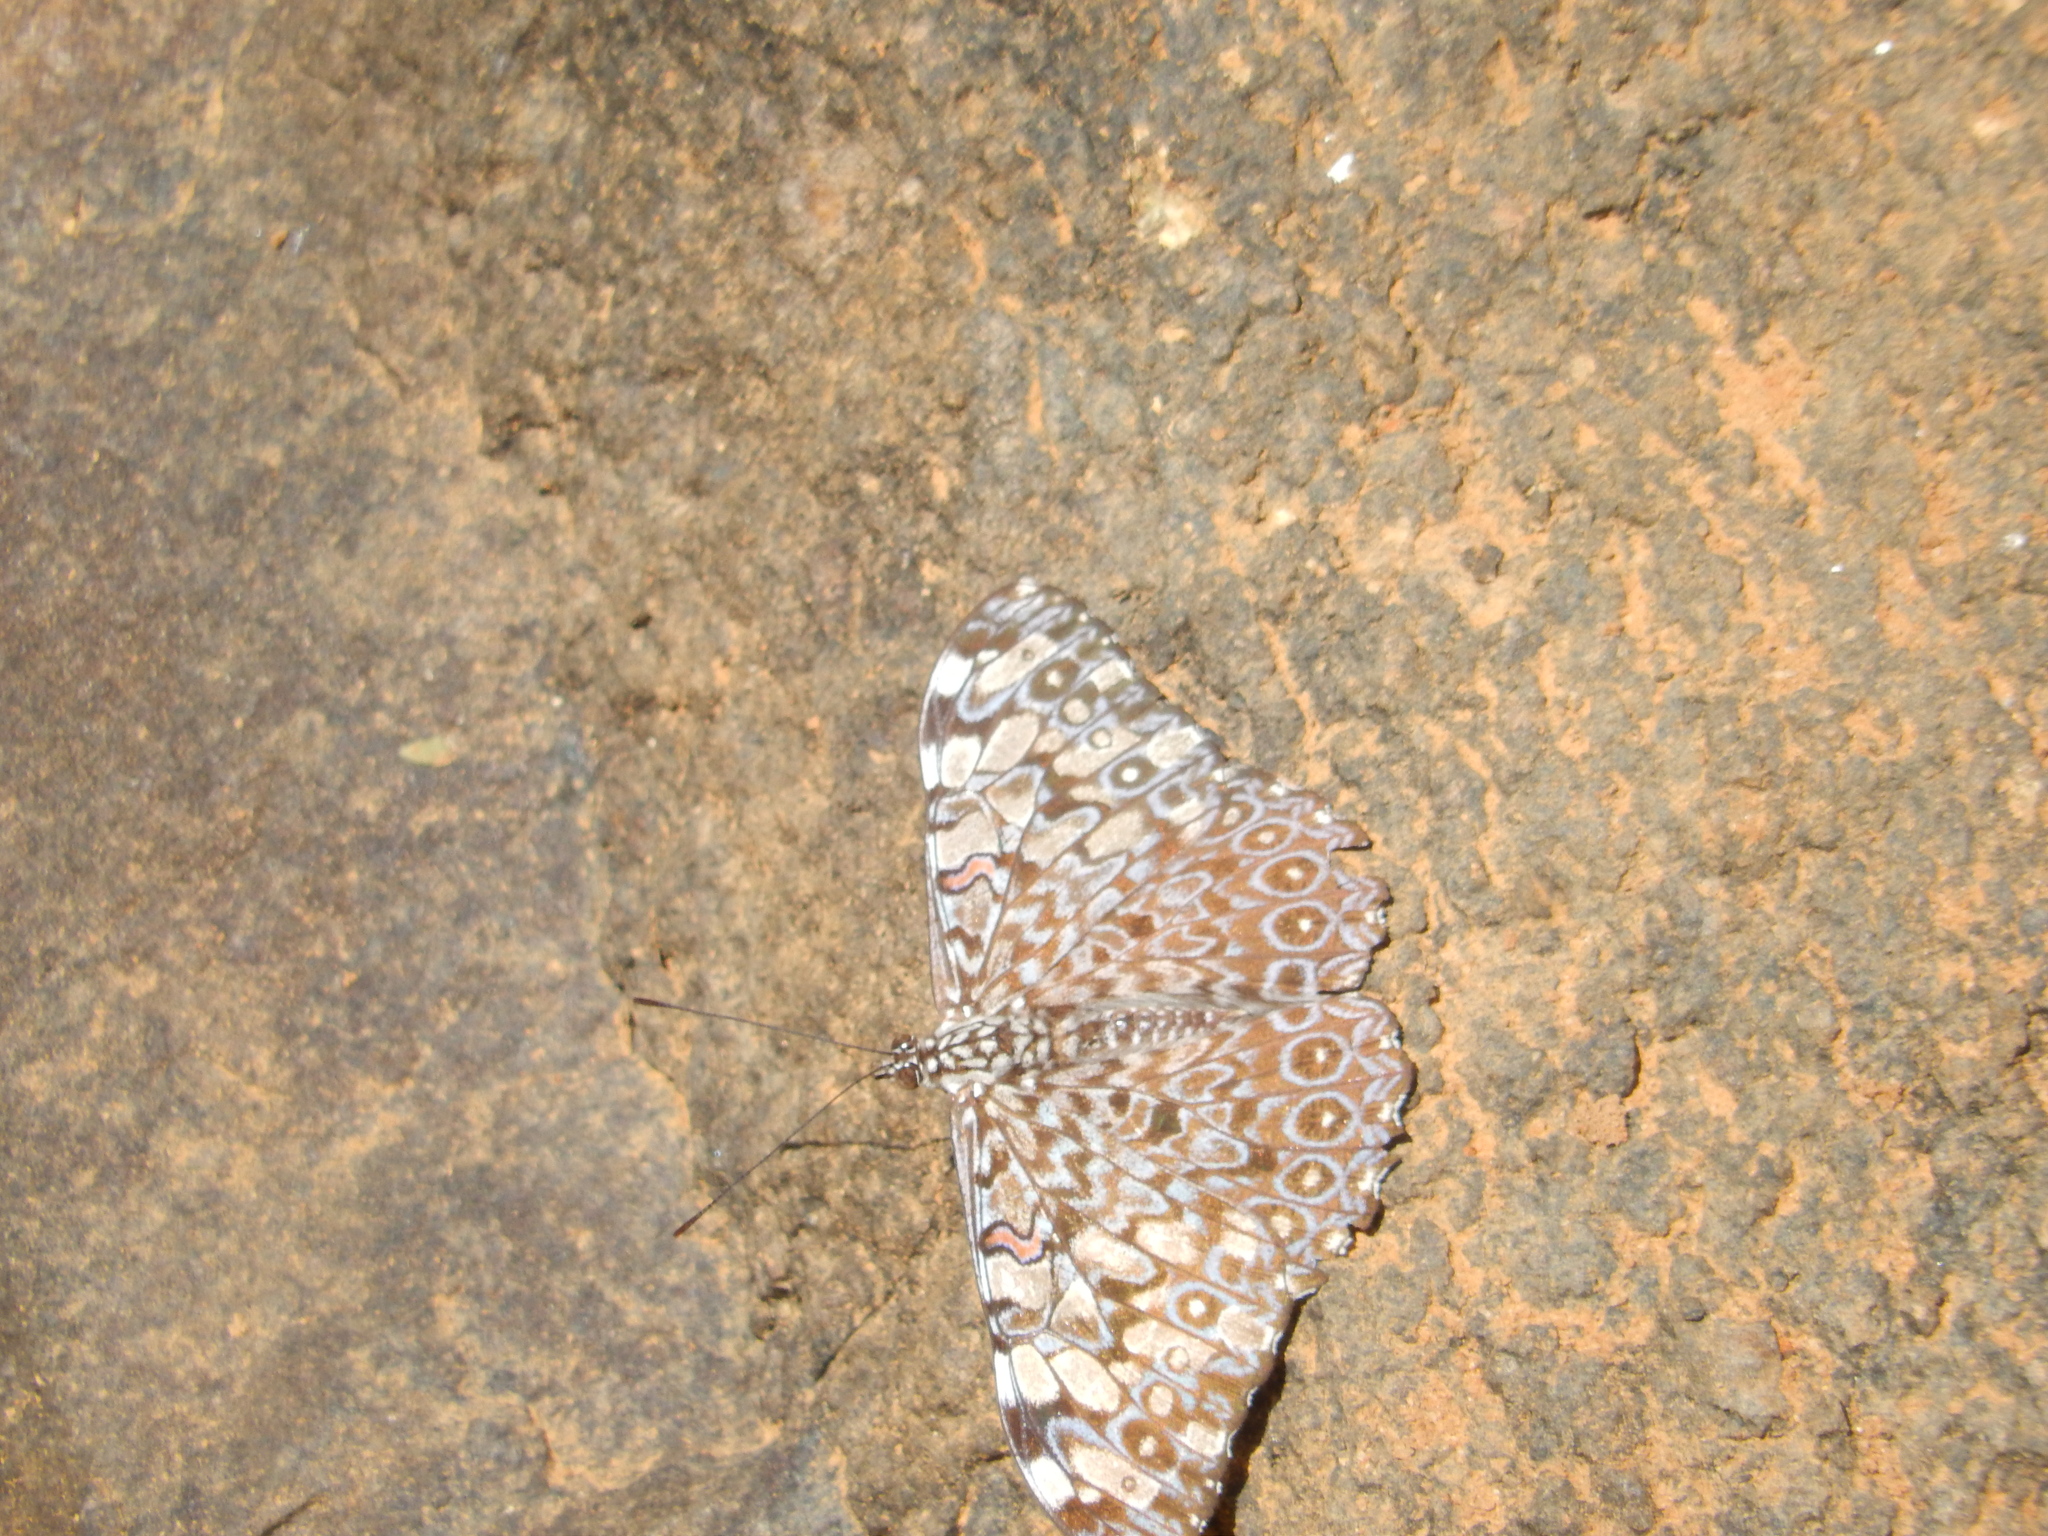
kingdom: Animalia
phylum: Arthropoda
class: Insecta
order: Lepidoptera
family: Nymphalidae
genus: Hamadryas
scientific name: Hamadryas feronia
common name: Variable cracker
